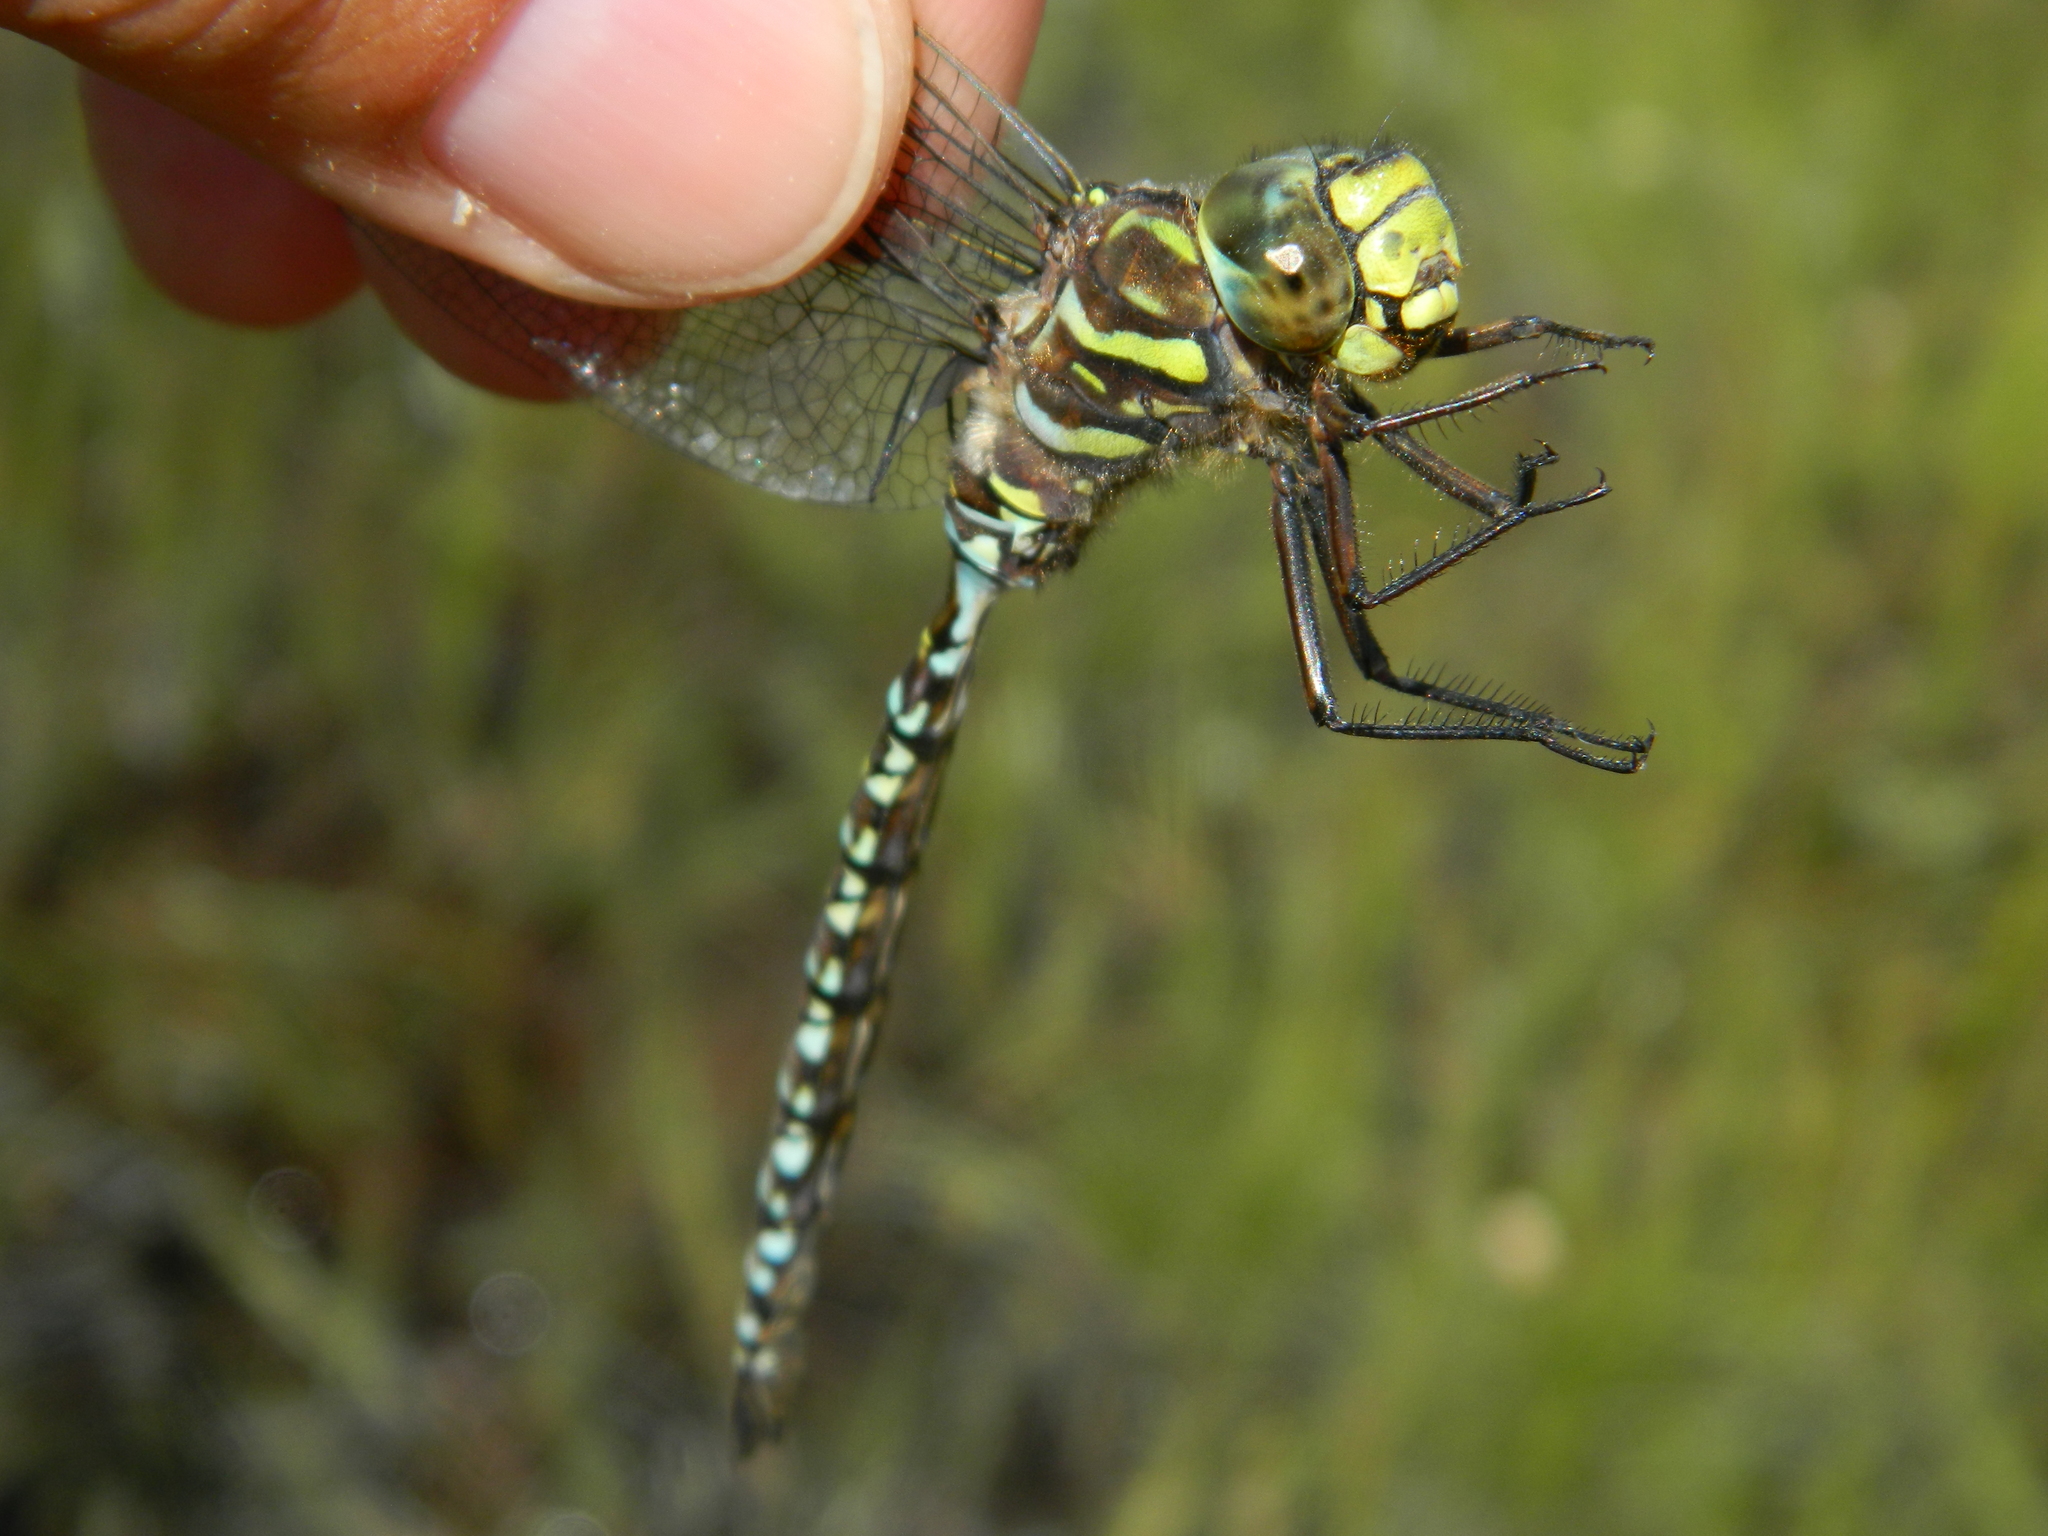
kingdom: Animalia
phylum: Arthropoda
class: Insecta
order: Odonata
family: Aeshnidae
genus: Aeshna
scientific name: Aeshna subarctica
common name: Subarctic darner
